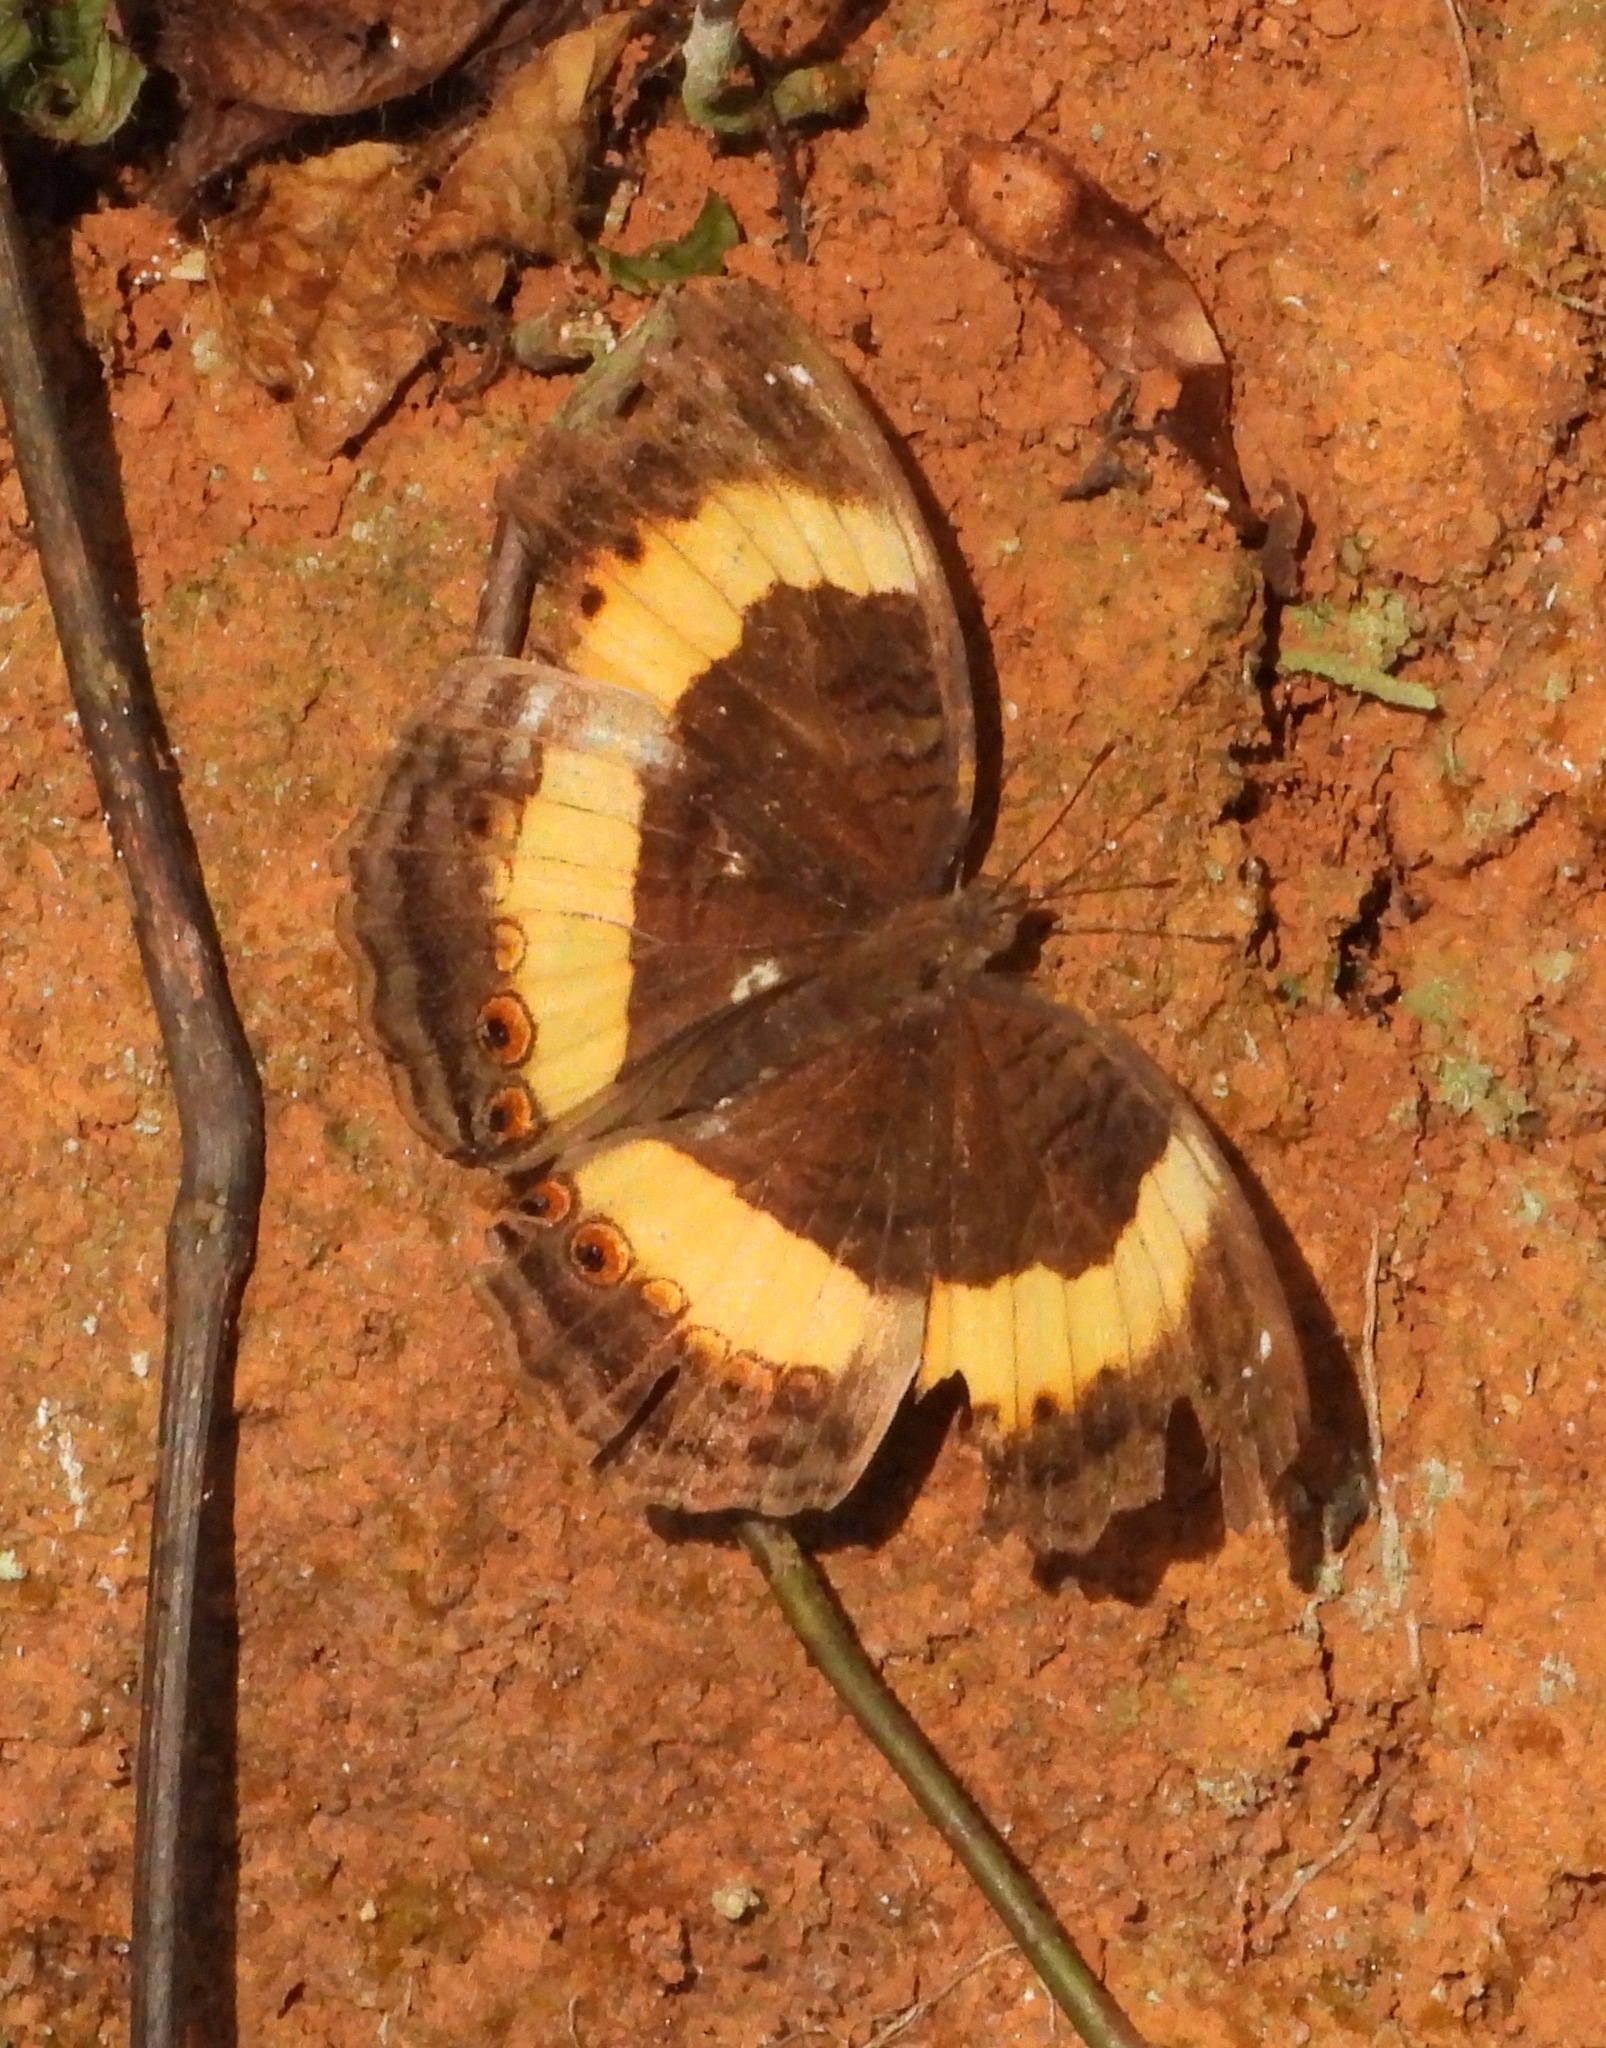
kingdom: Animalia
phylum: Arthropoda
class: Insecta
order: Lepidoptera
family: Nymphalidae
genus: Junonia
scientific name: Junonia terea
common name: Soldier pansy
